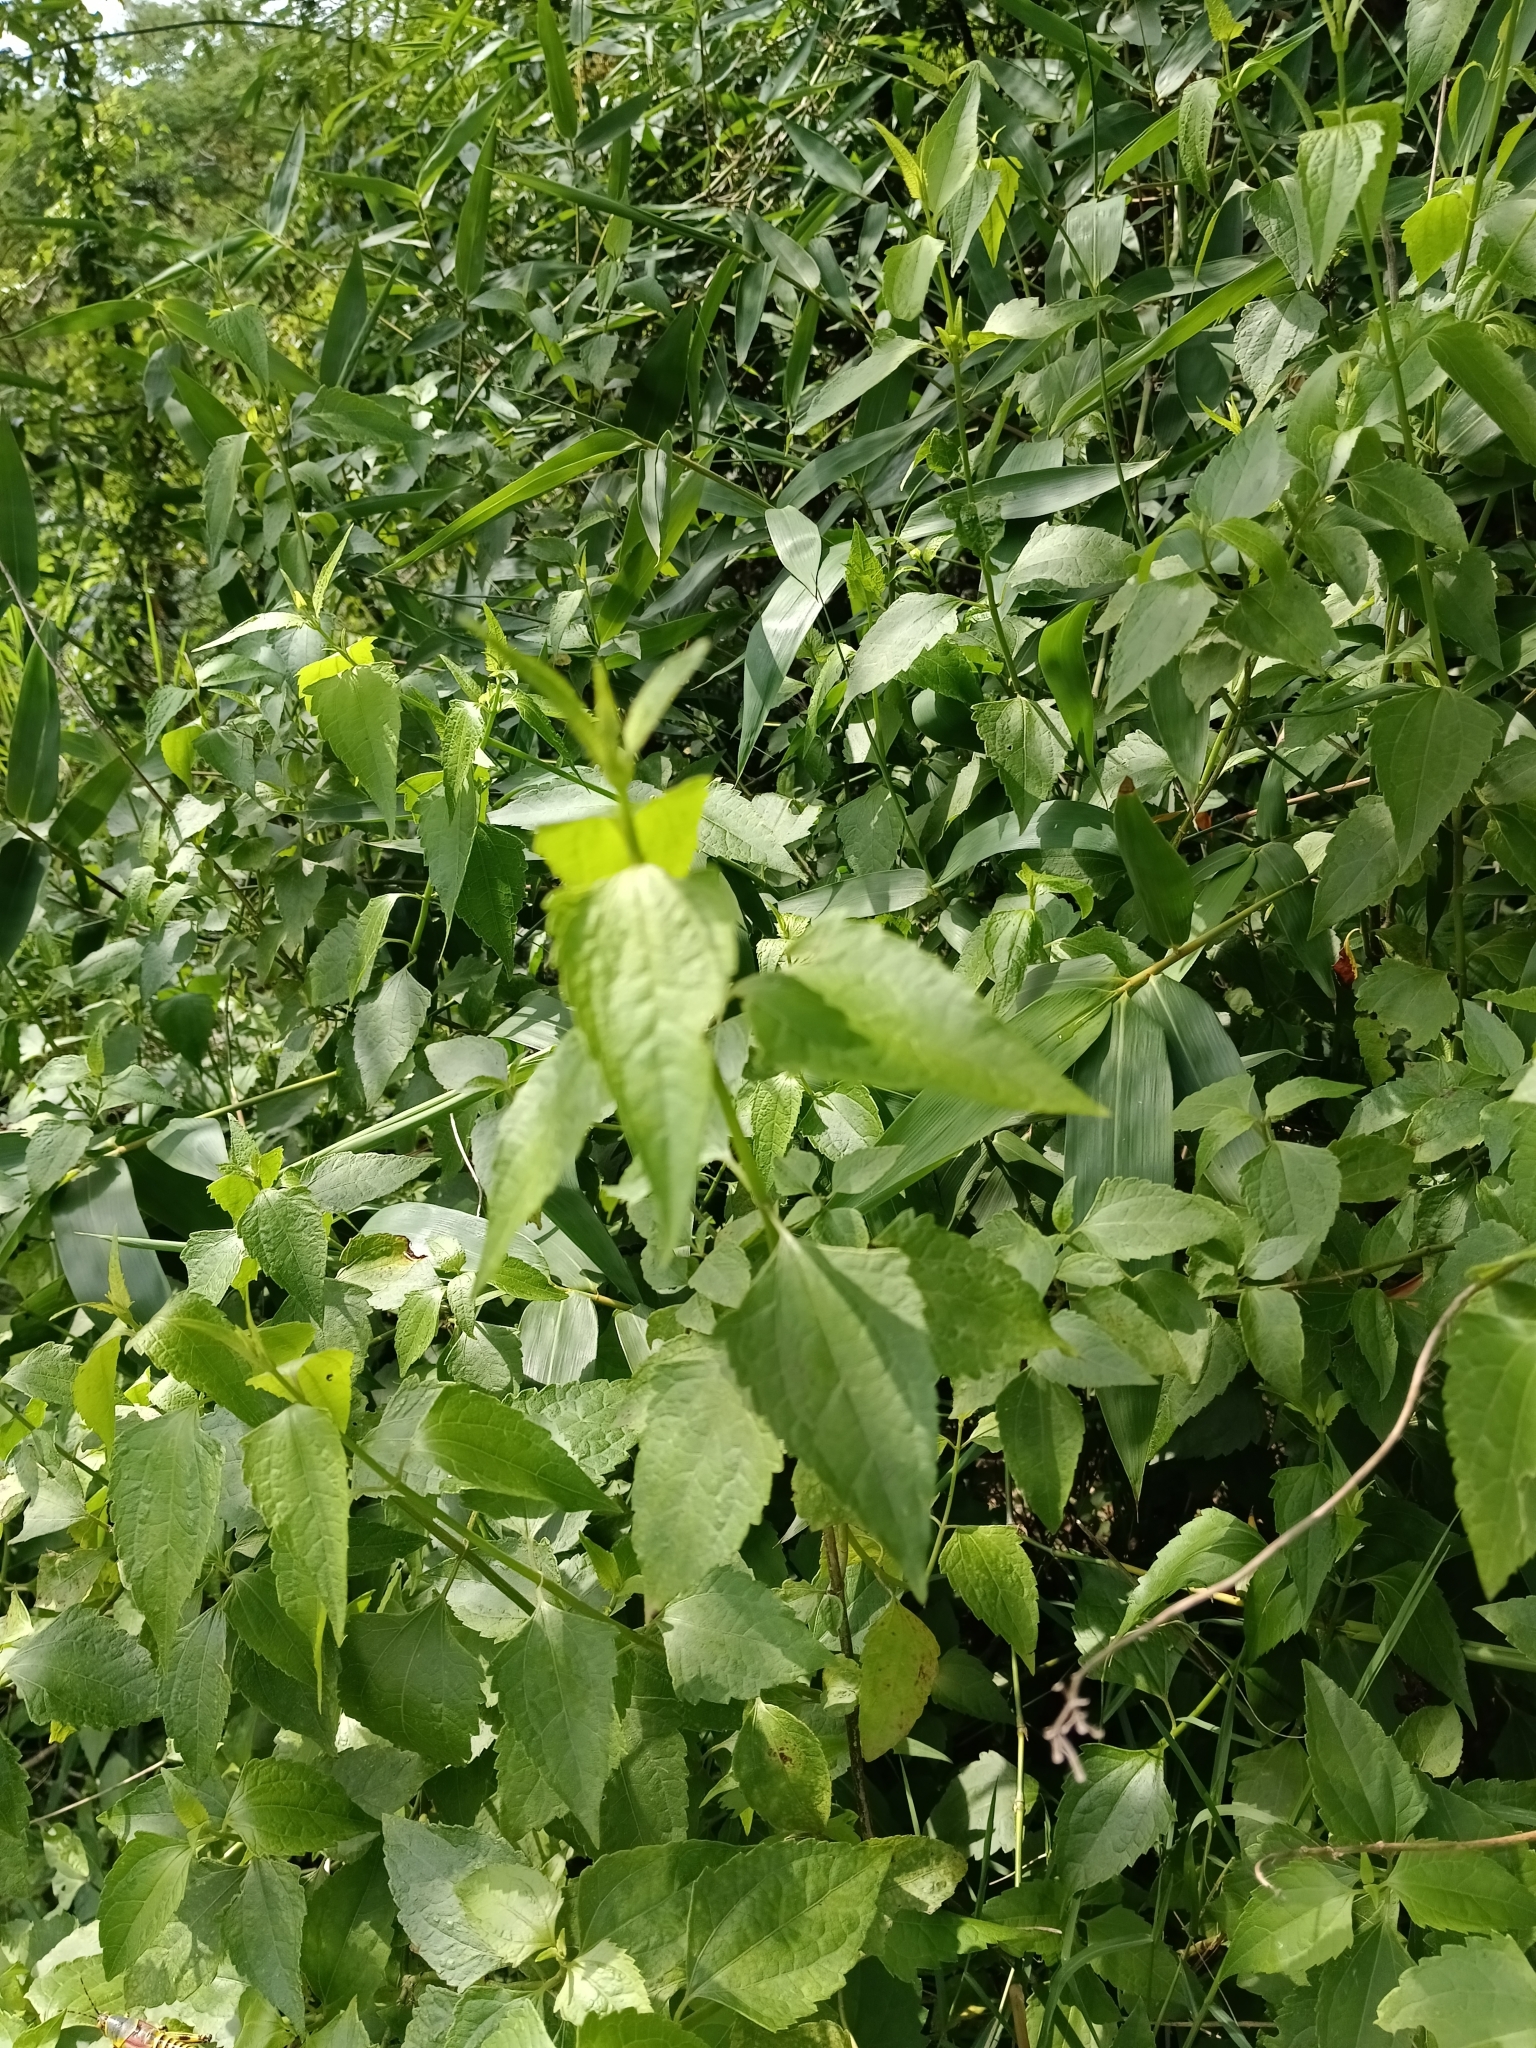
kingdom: Plantae
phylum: Tracheophyta
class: Magnoliopsida
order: Asterales
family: Asteraceae
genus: Chromolaena
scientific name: Chromolaena odorata
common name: Siamweed
